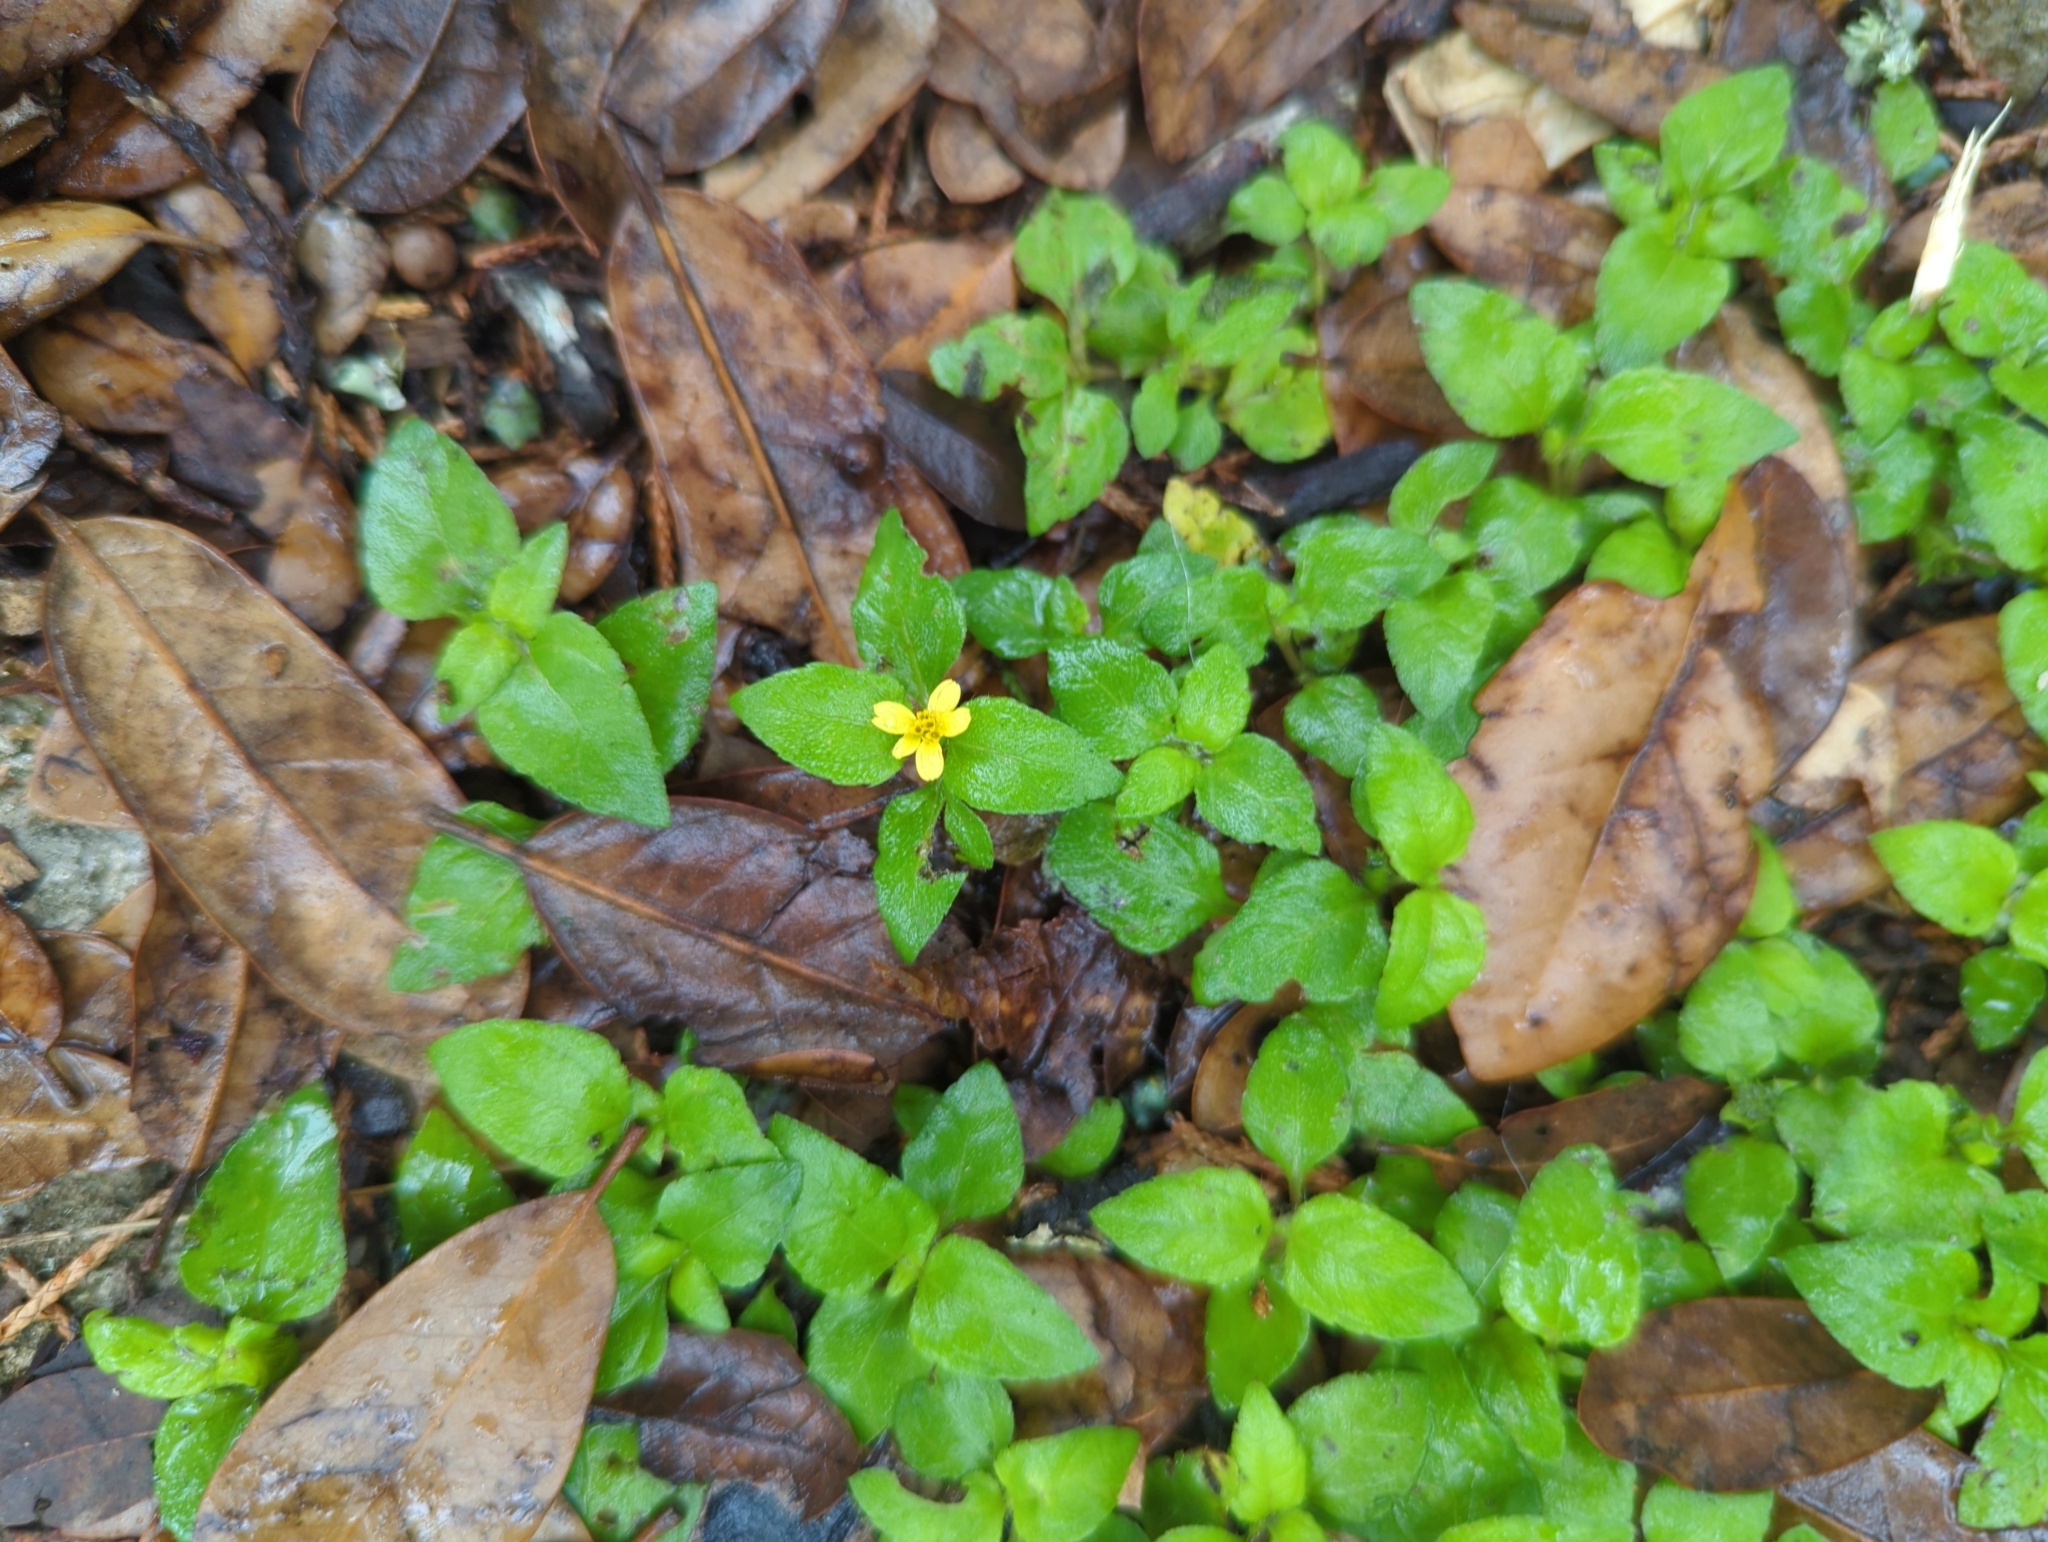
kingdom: Plantae
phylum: Tracheophyta
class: Magnoliopsida
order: Asterales
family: Asteraceae
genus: Calyptocarpus
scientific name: Calyptocarpus vialis
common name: Straggler daisy
